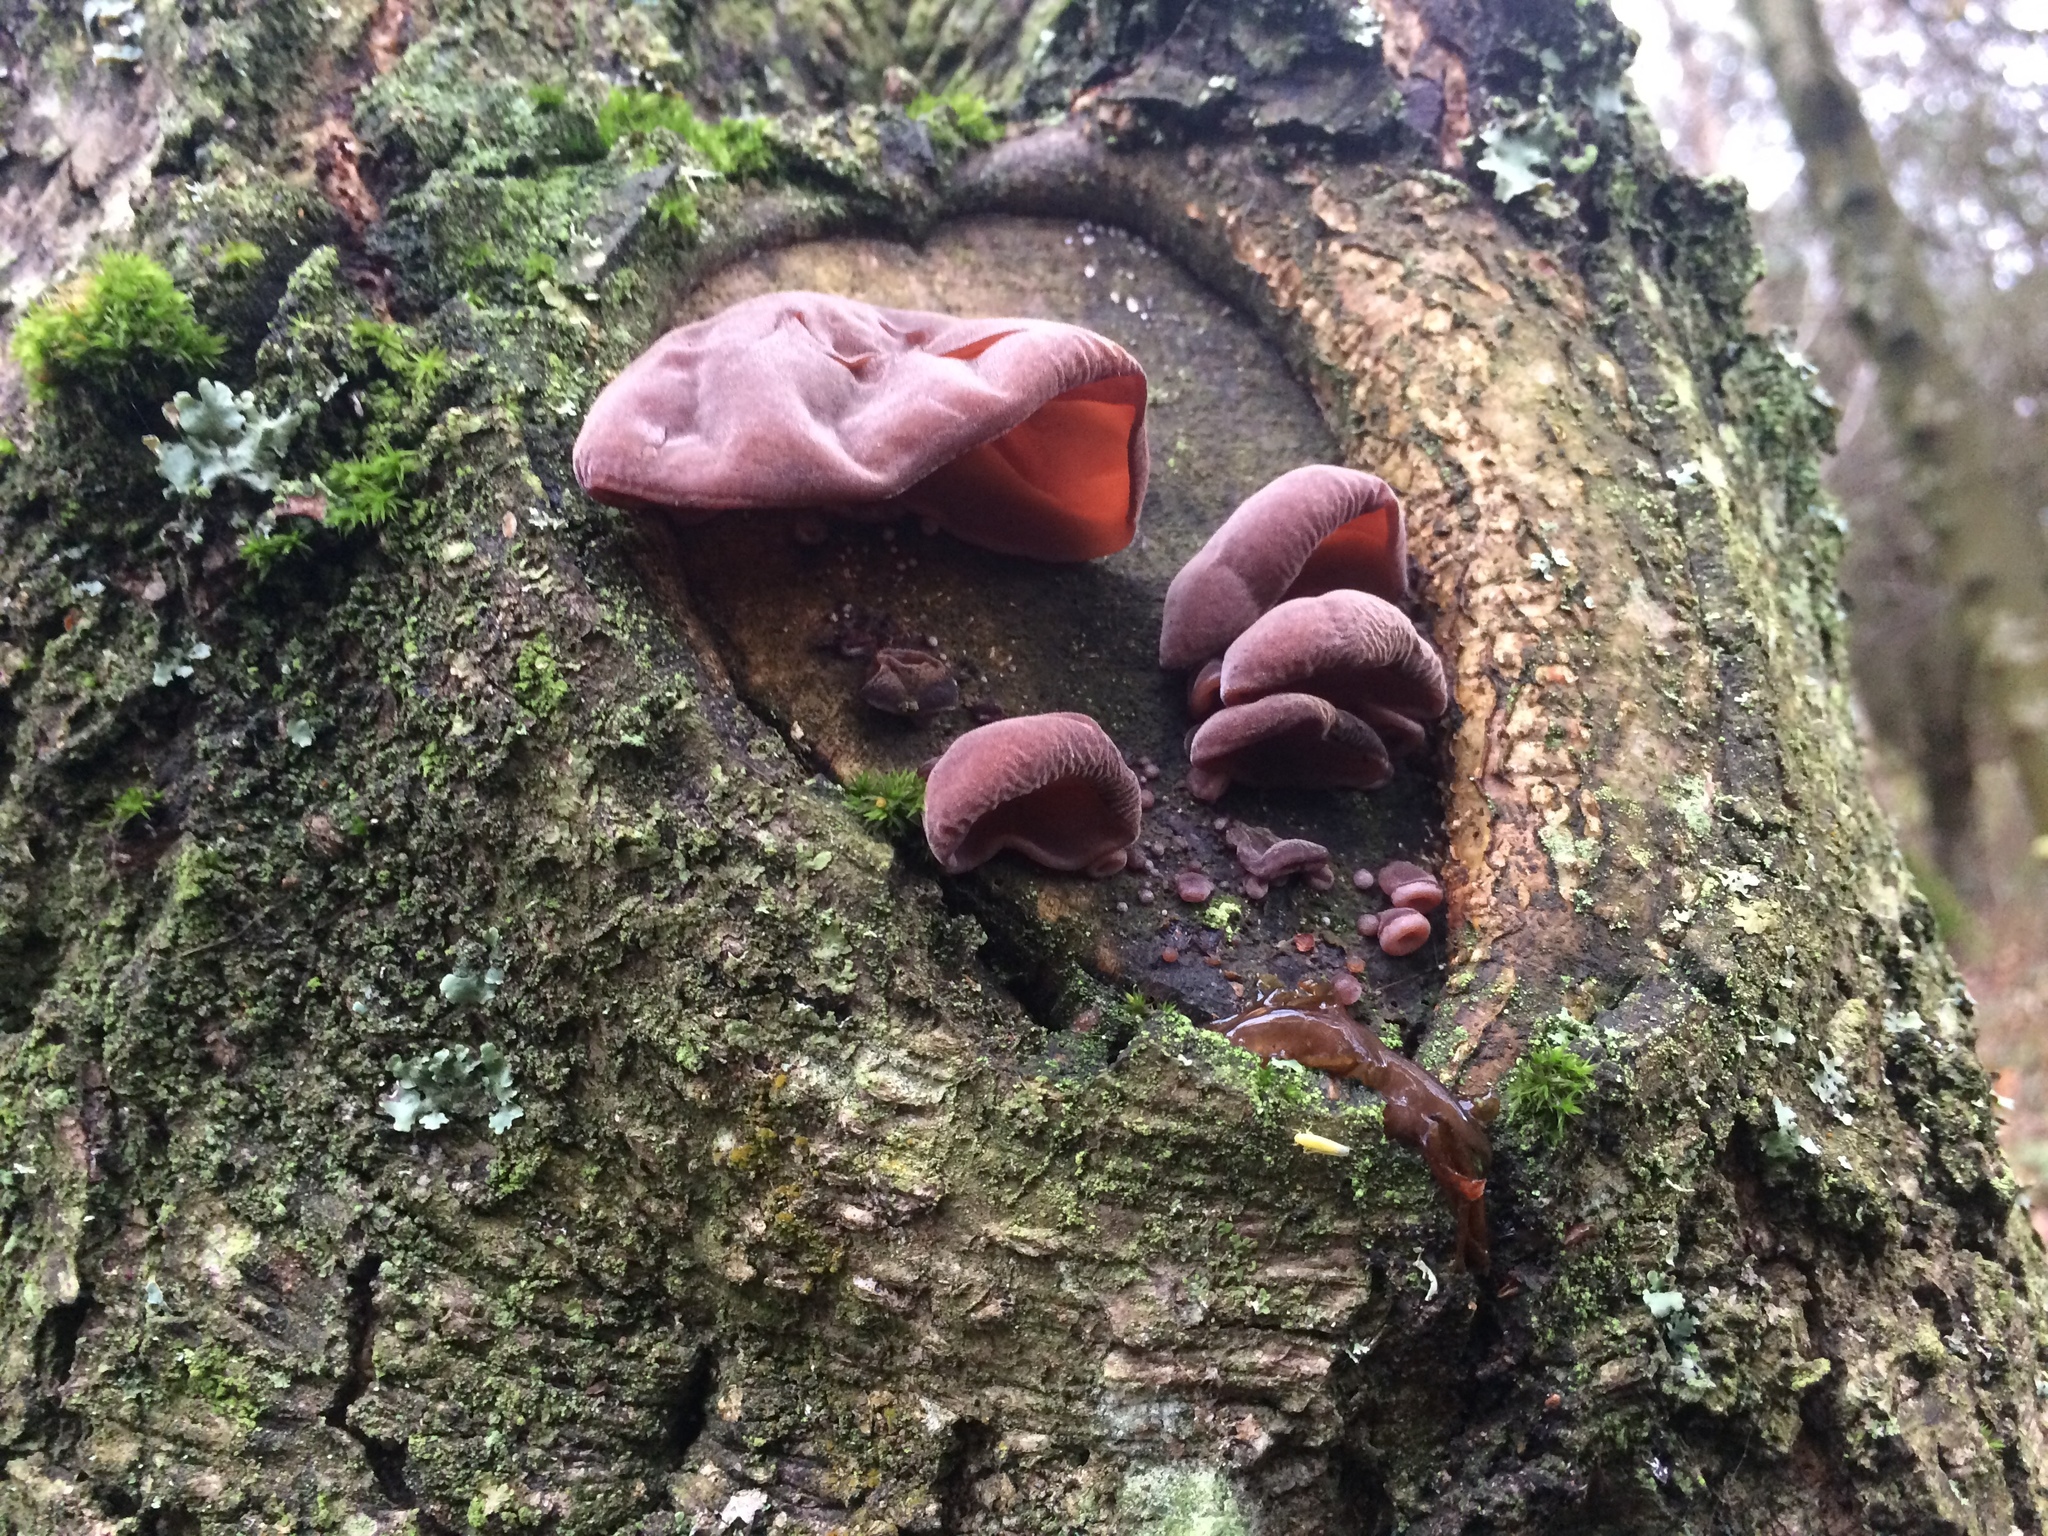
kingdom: Fungi
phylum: Basidiomycota
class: Agaricomycetes
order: Auriculariales
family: Auriculariaceae
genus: Auricularia
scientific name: Auricularia auricula-judae
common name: Jelly ear
